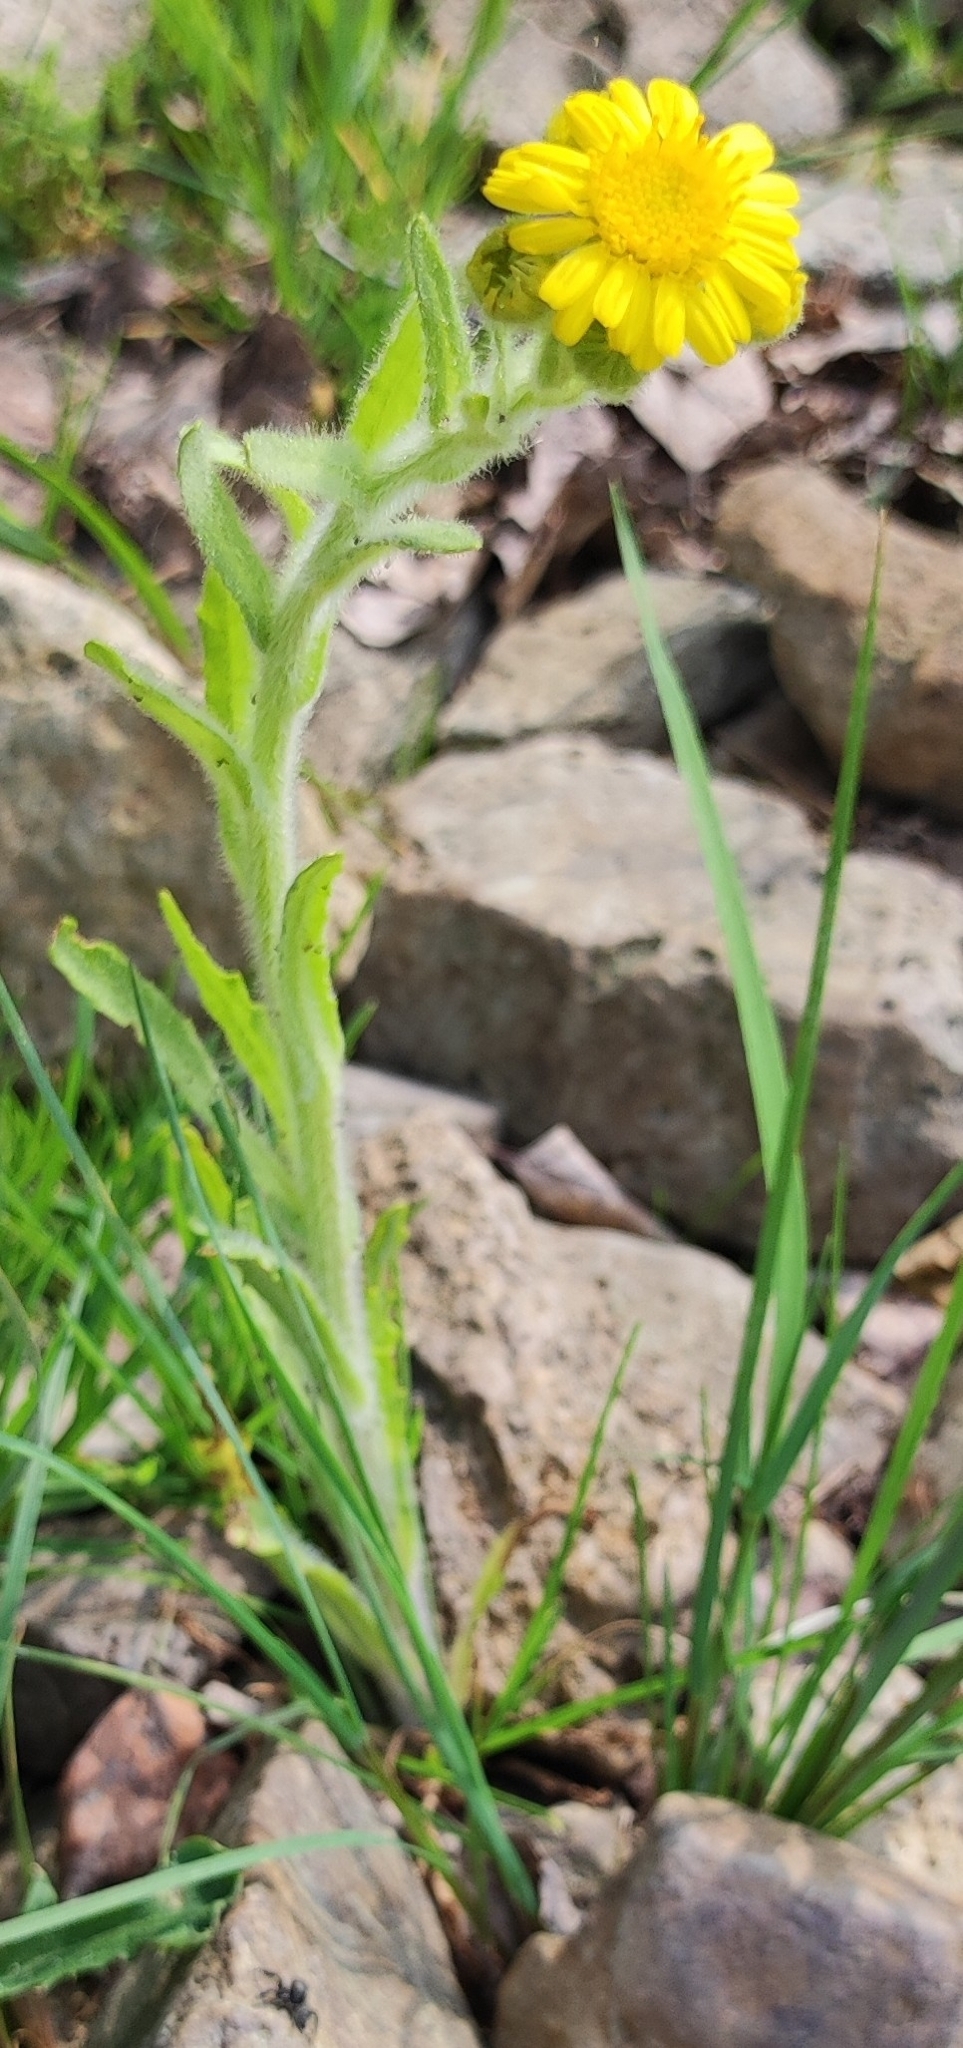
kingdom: Plantae
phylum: Tracheophyta
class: Magnoliopsida
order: Asterales
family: Asteraceae
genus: Tephroseris
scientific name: Tephroseris palustris
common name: Marsh fleawort
